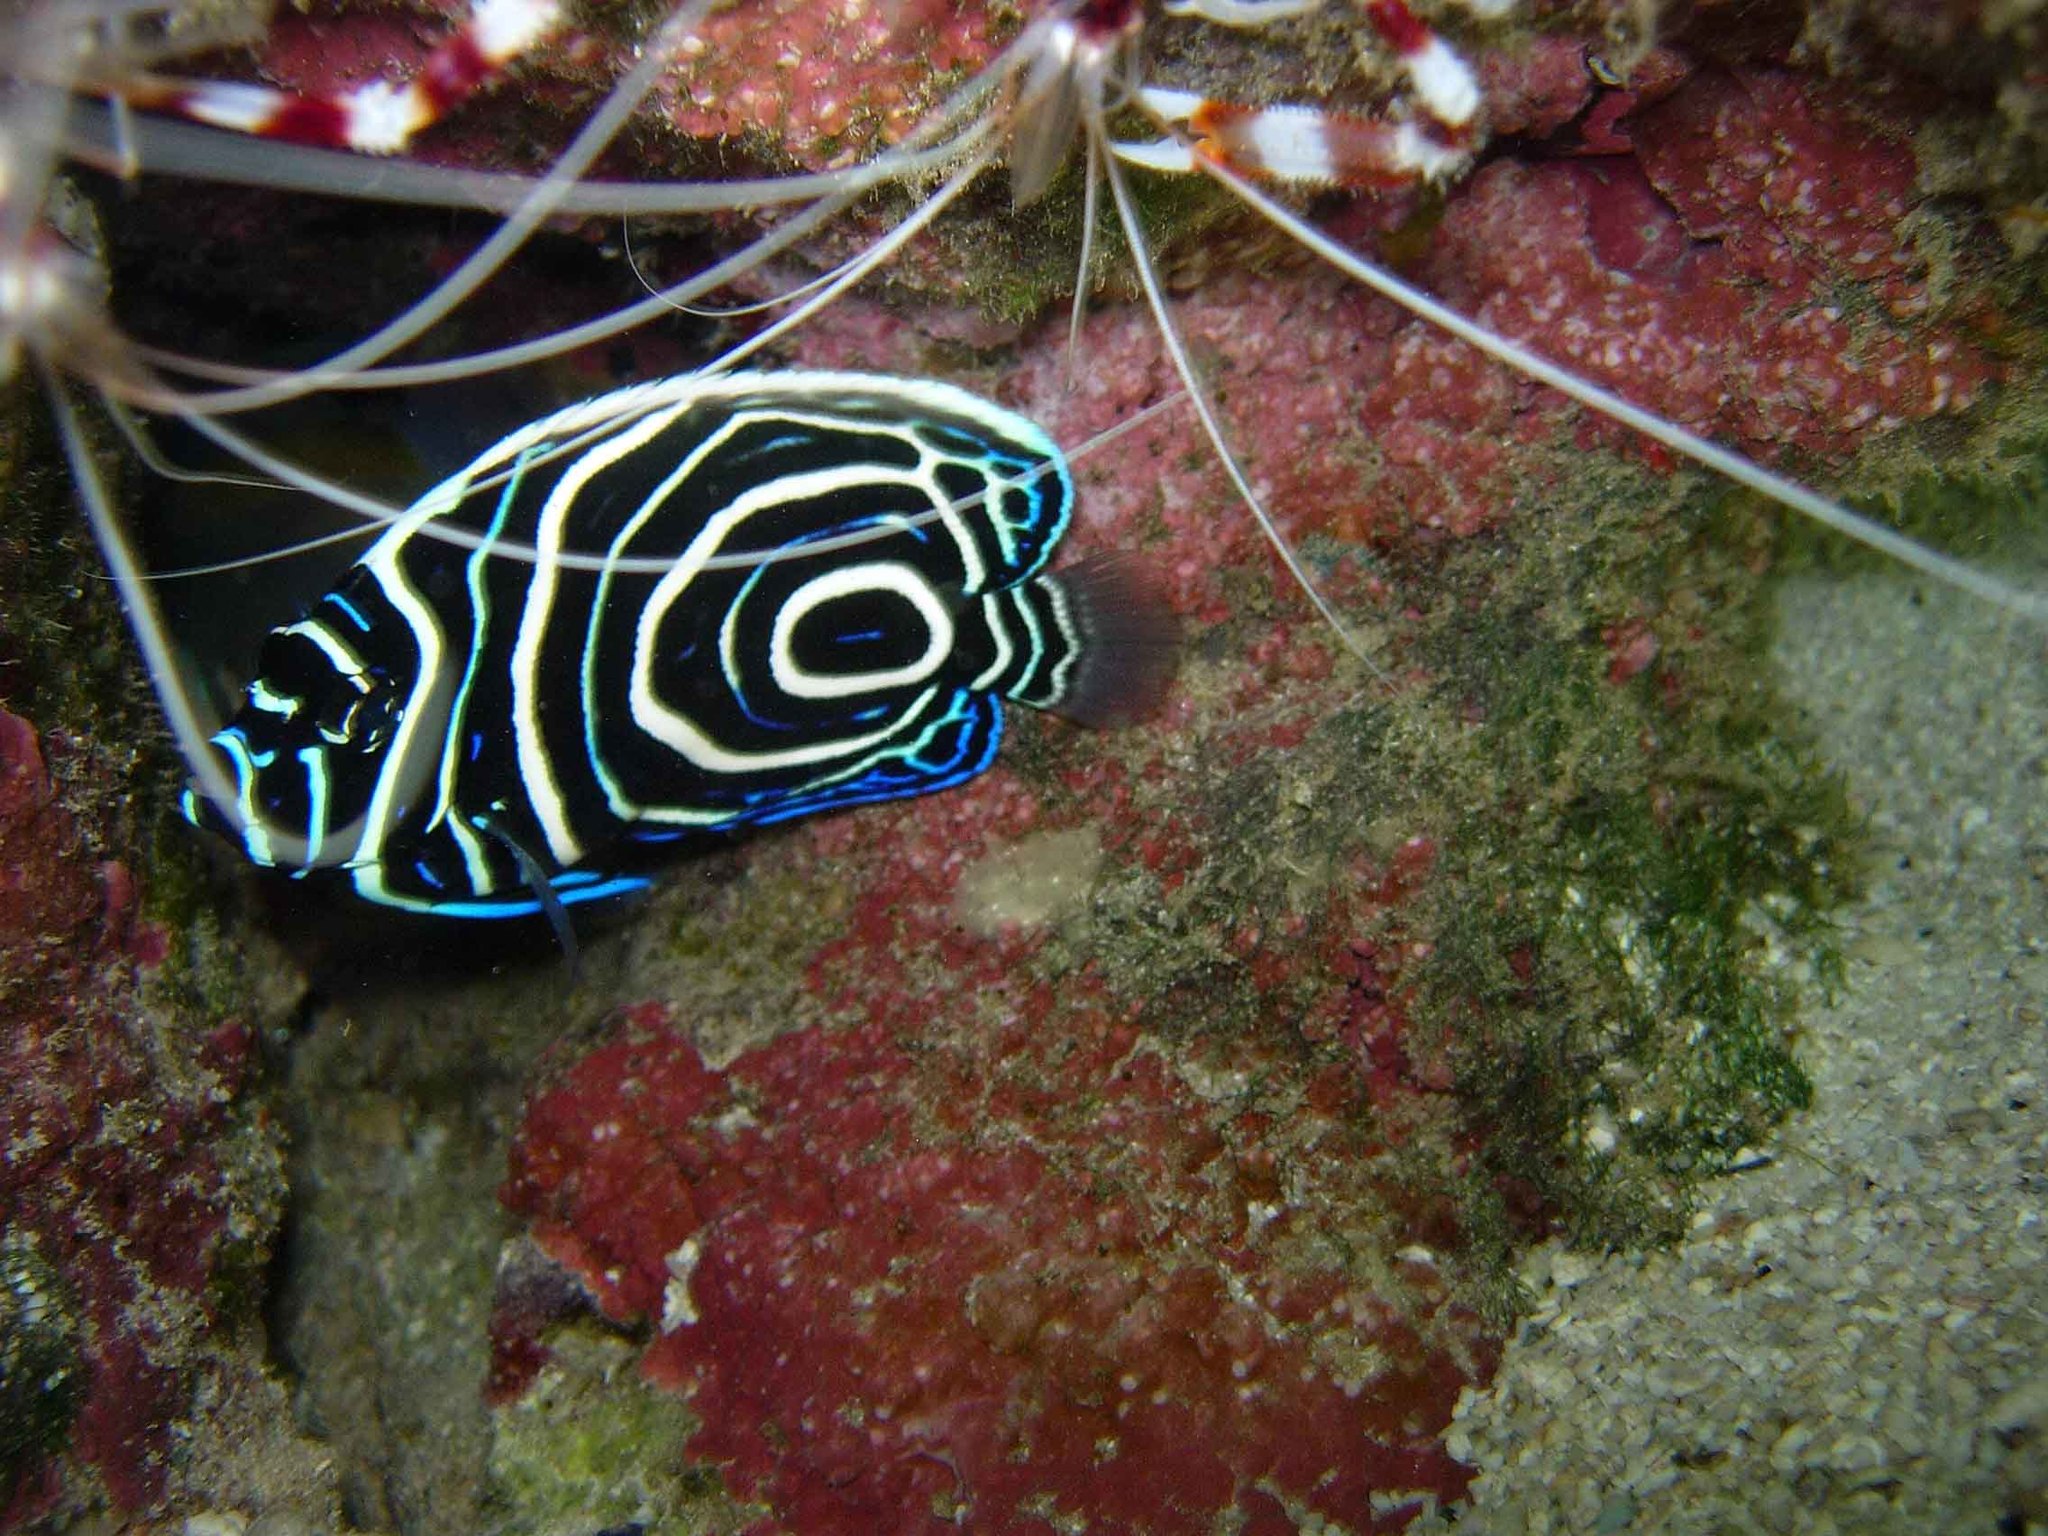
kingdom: Animalia
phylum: Chordata
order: Perciformes
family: Pomacanthidae
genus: Pomacanthus
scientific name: Pomacanthus imperator
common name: Emperor angelfish
